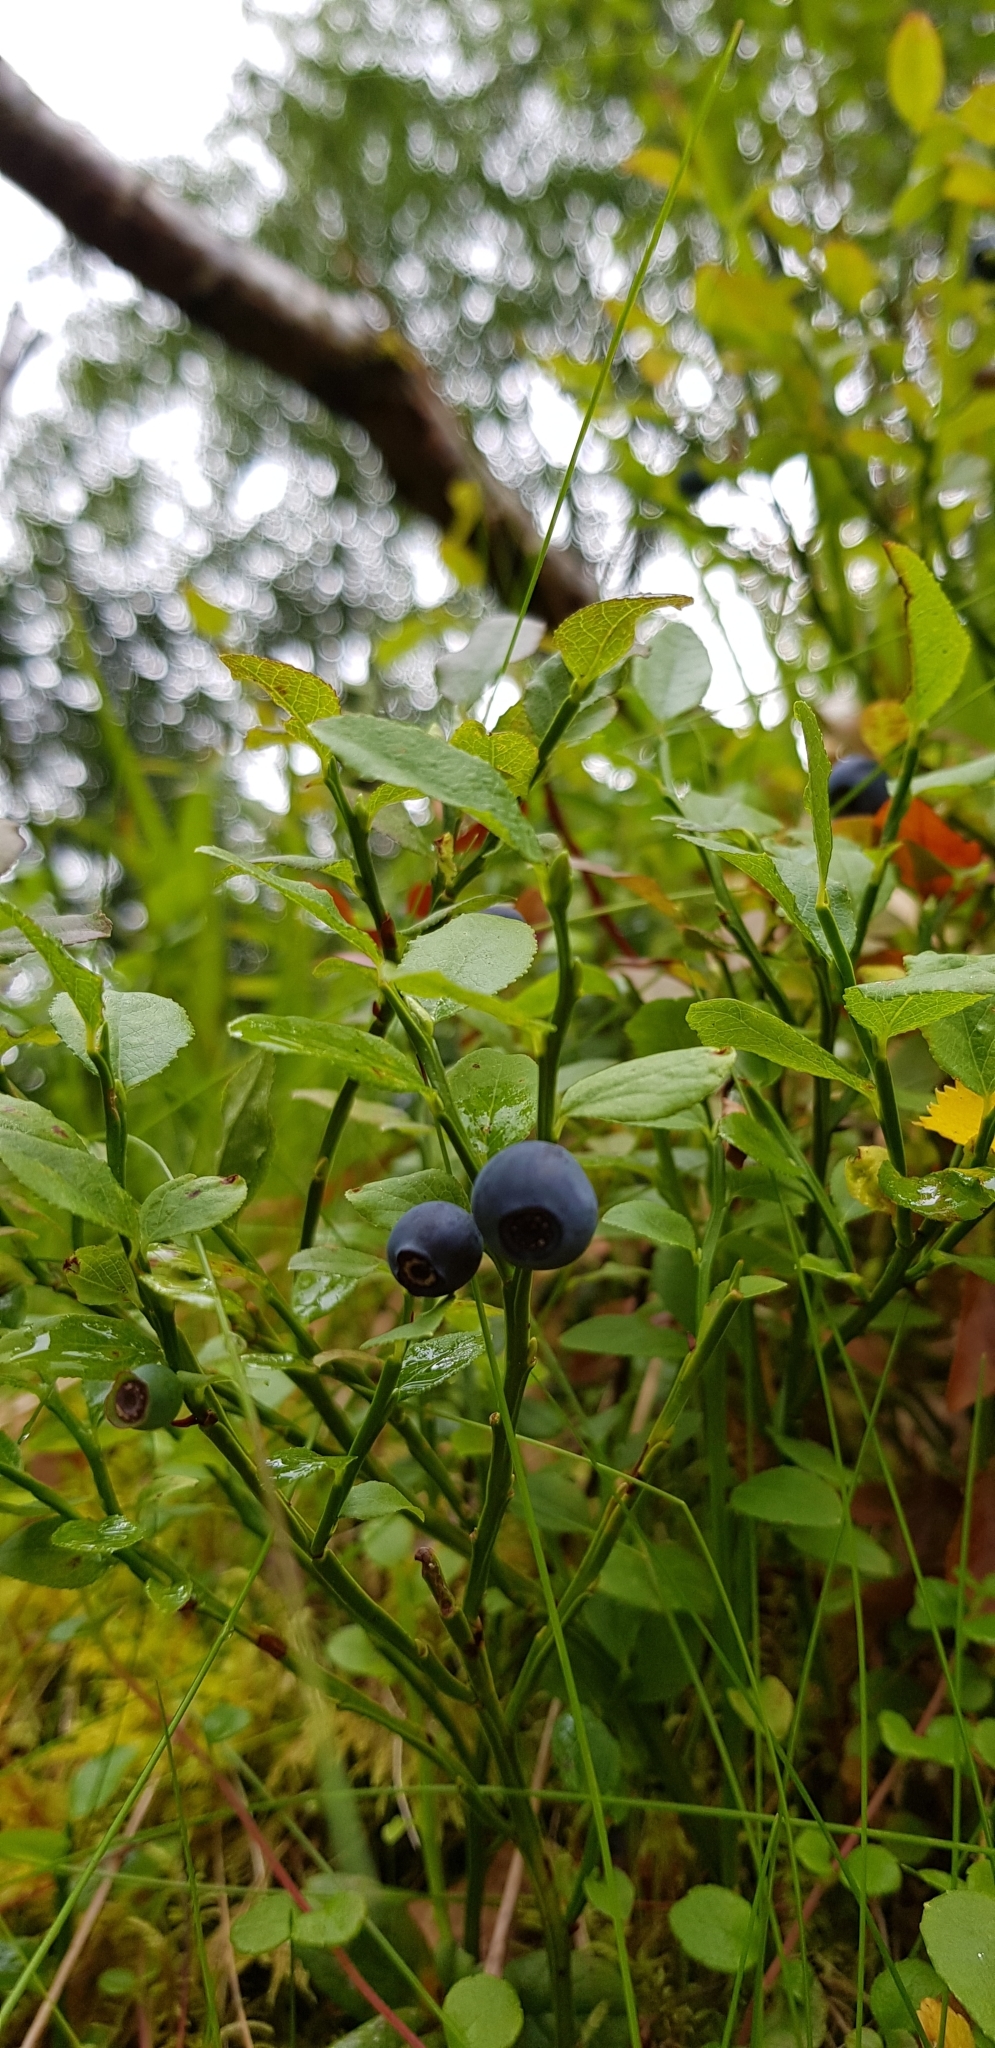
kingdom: Plantae
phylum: Tracheophyta
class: Magnoliopsida
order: Ericales
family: Ericaceae
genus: Vaccinium
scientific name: Vaccinium myrtillus
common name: Bilberry
